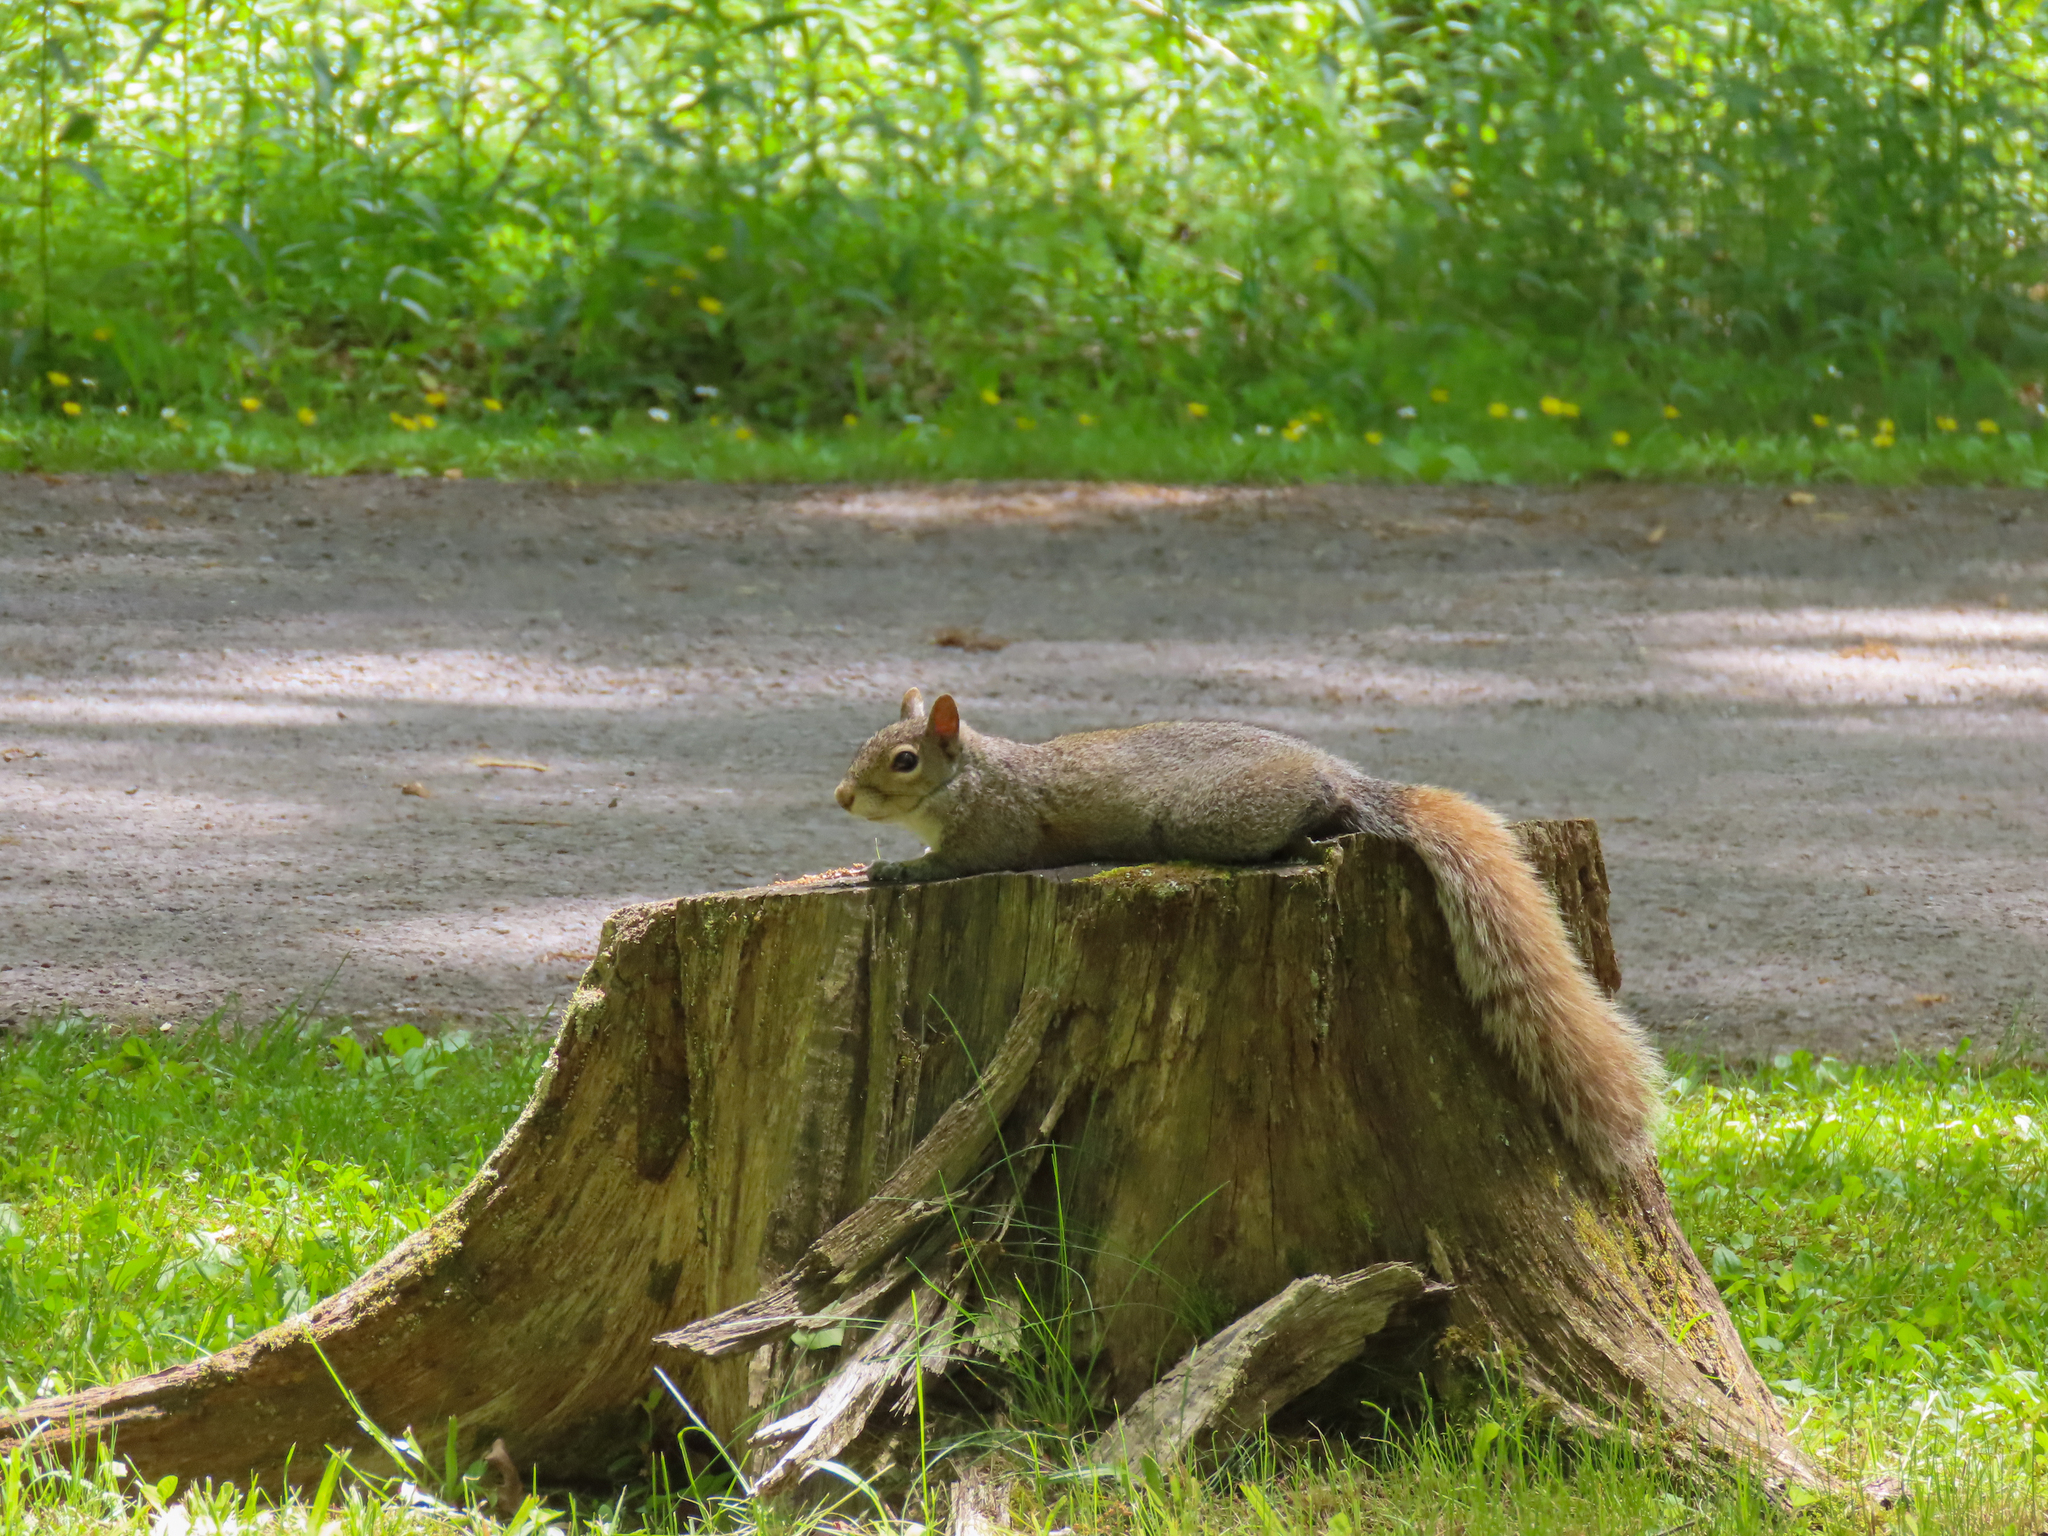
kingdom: Animalia
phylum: Chordata
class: Mammalia
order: Rodentia
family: Sciuridae
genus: Sciurus
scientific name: Sciurus carolinensis
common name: Eastern gray squirrel
